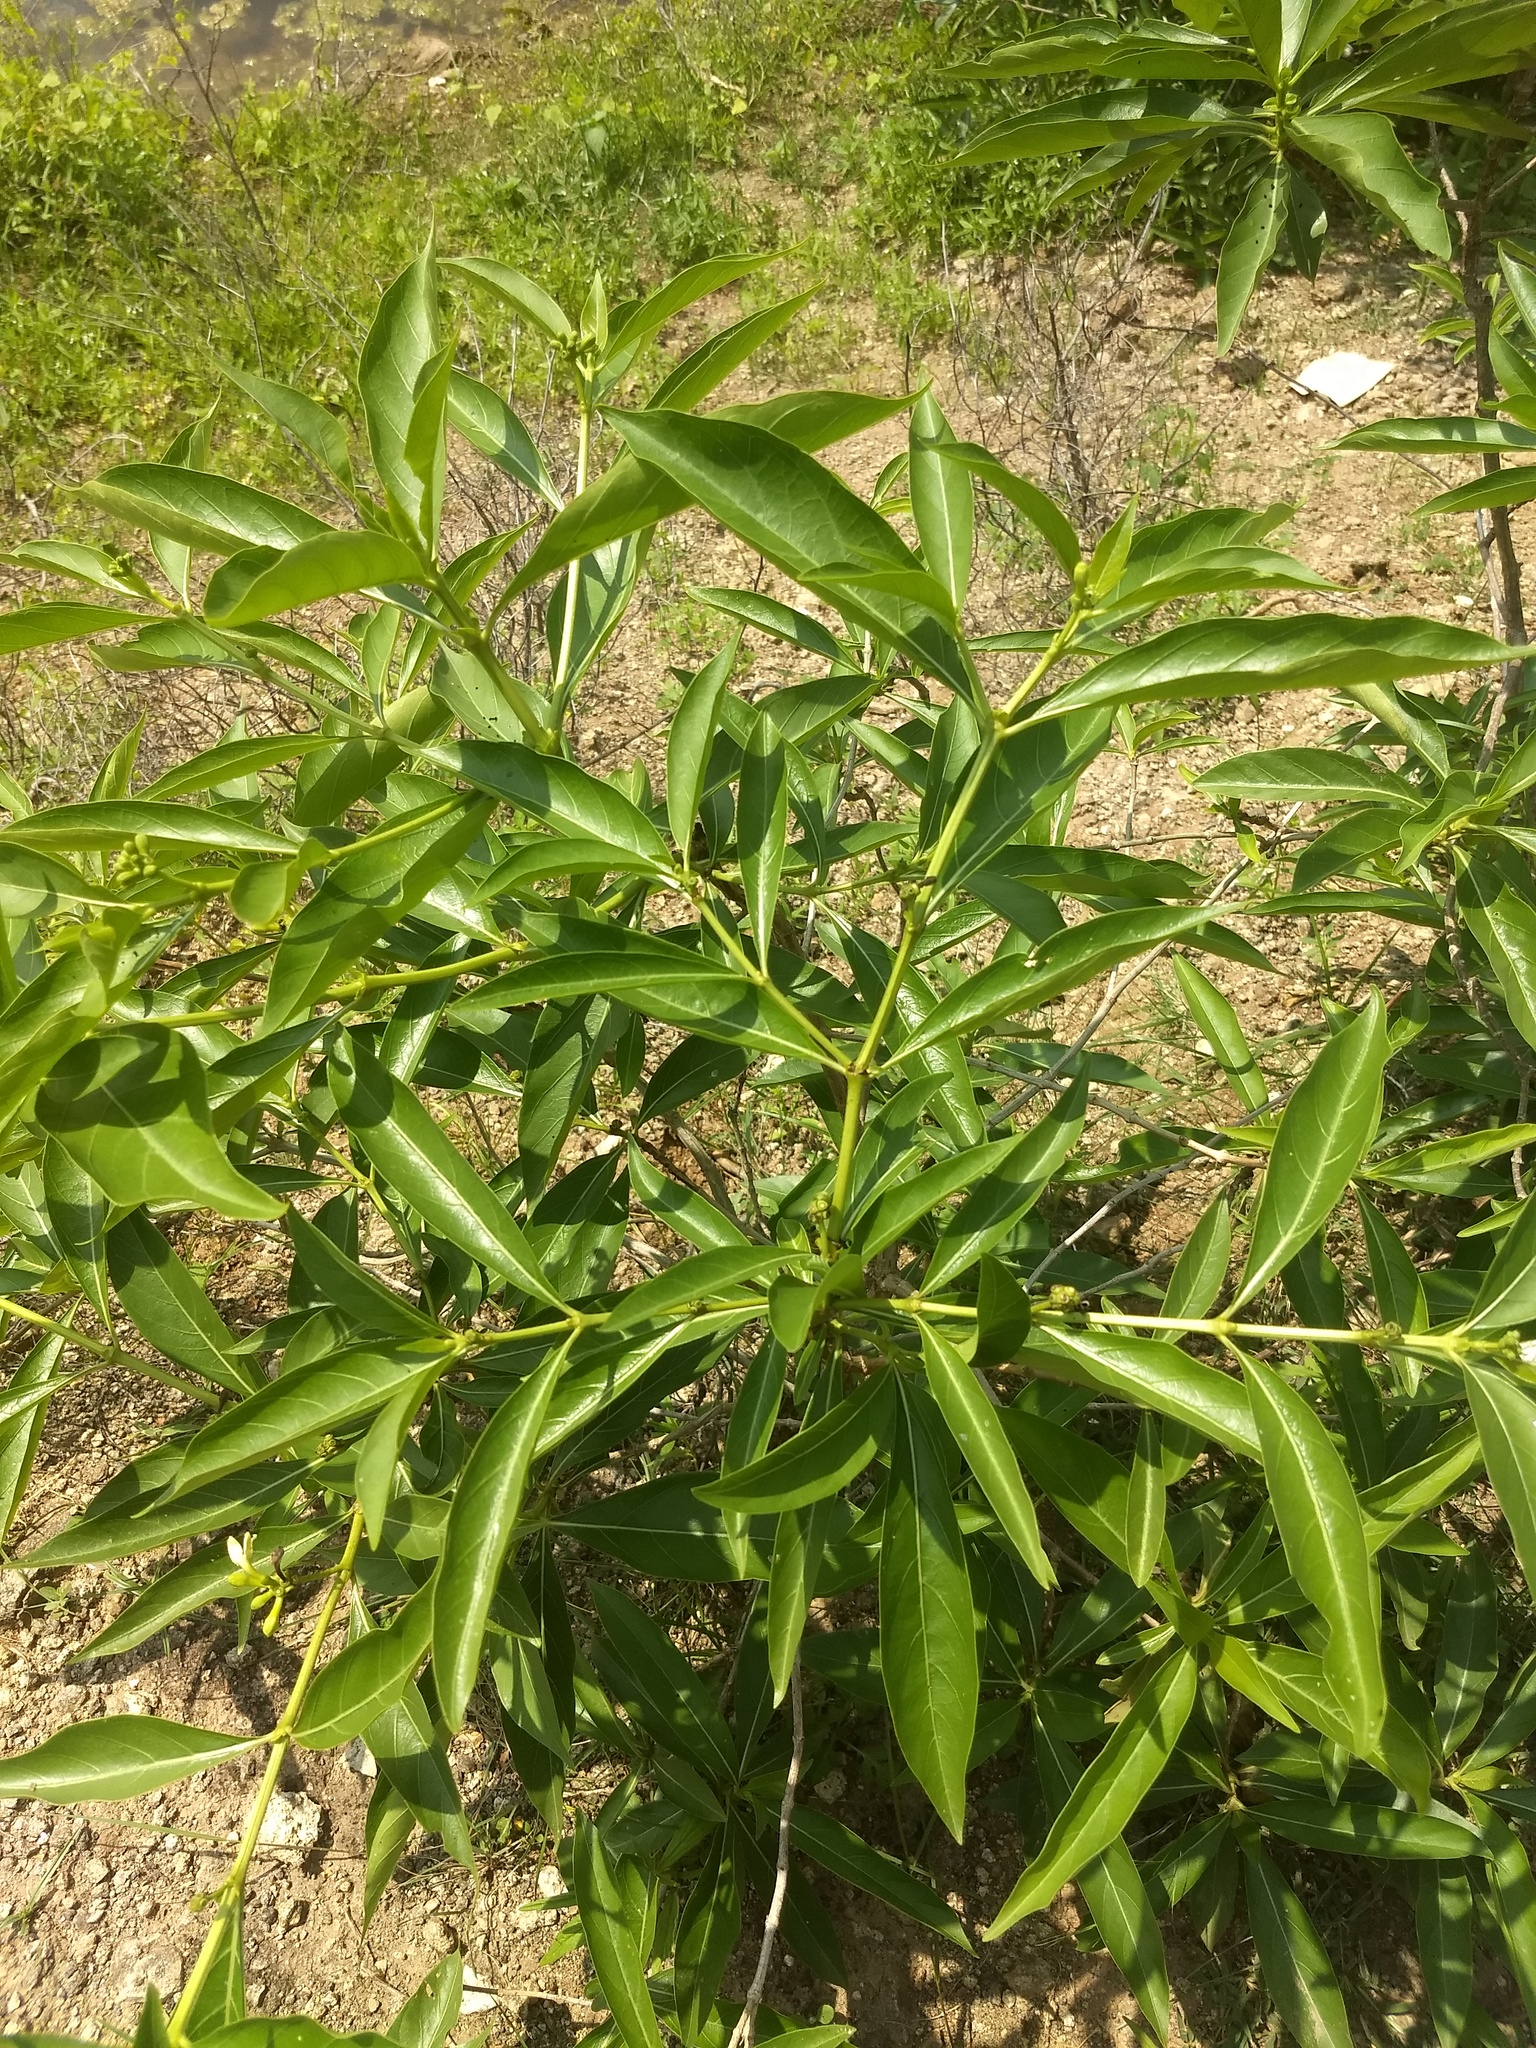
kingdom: Plantae
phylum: Tracheophyta
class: Magnoliopsida
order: Gentianales
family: Rubiaceae
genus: Morinda
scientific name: Morinda coreia
